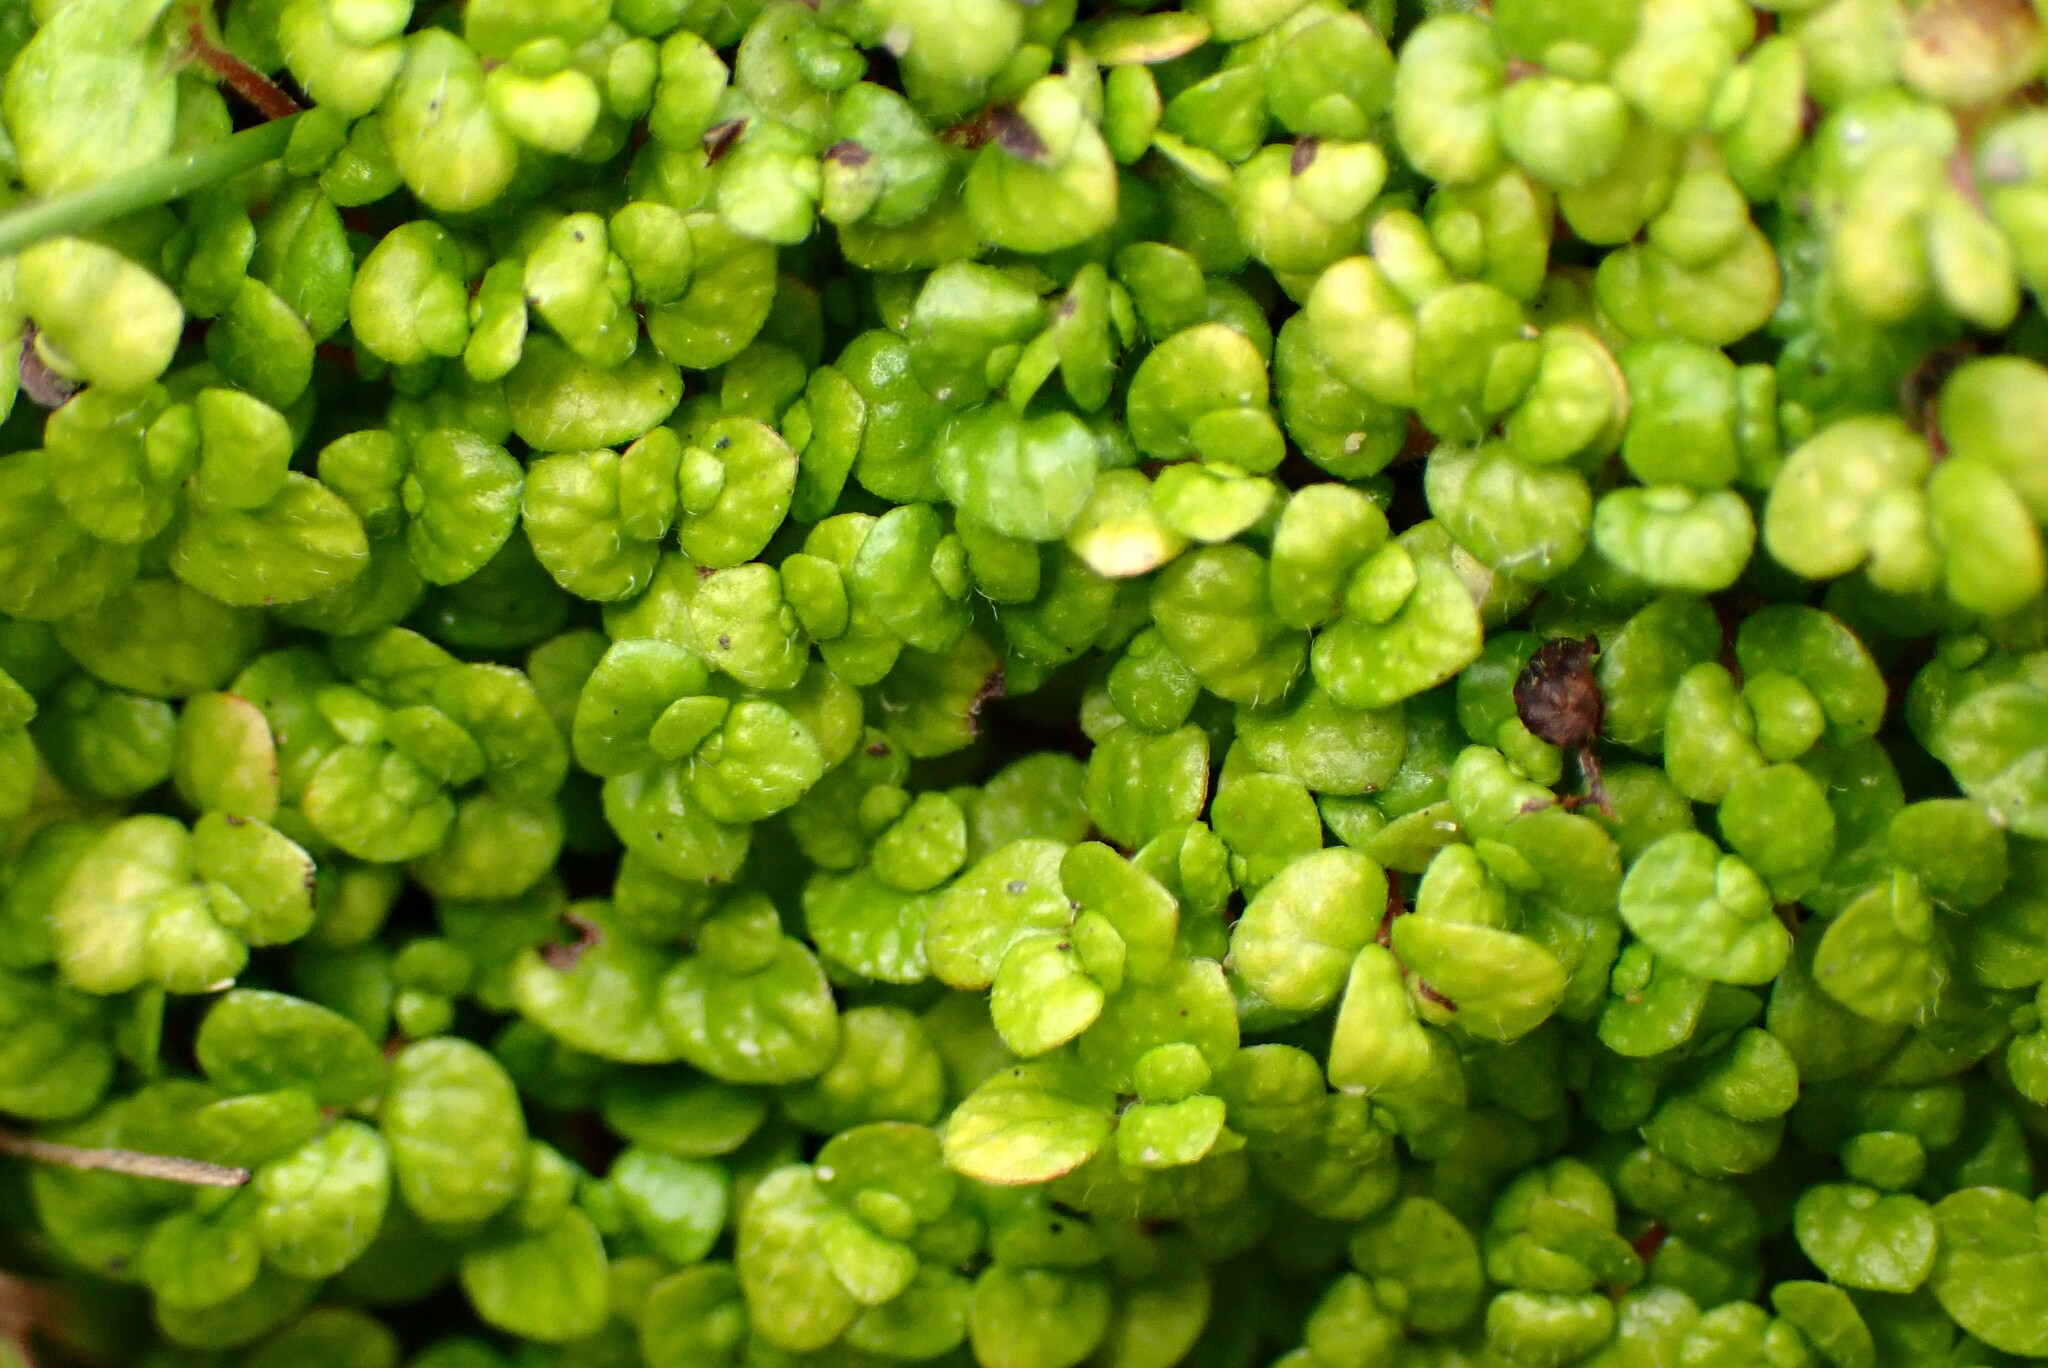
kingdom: Plantae
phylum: Tracheophyta
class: Magnoliopsida
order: Rosales
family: Urticaceae
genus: Soleirolia
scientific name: Soleirolia soleirolii
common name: Mind-your-own-business
